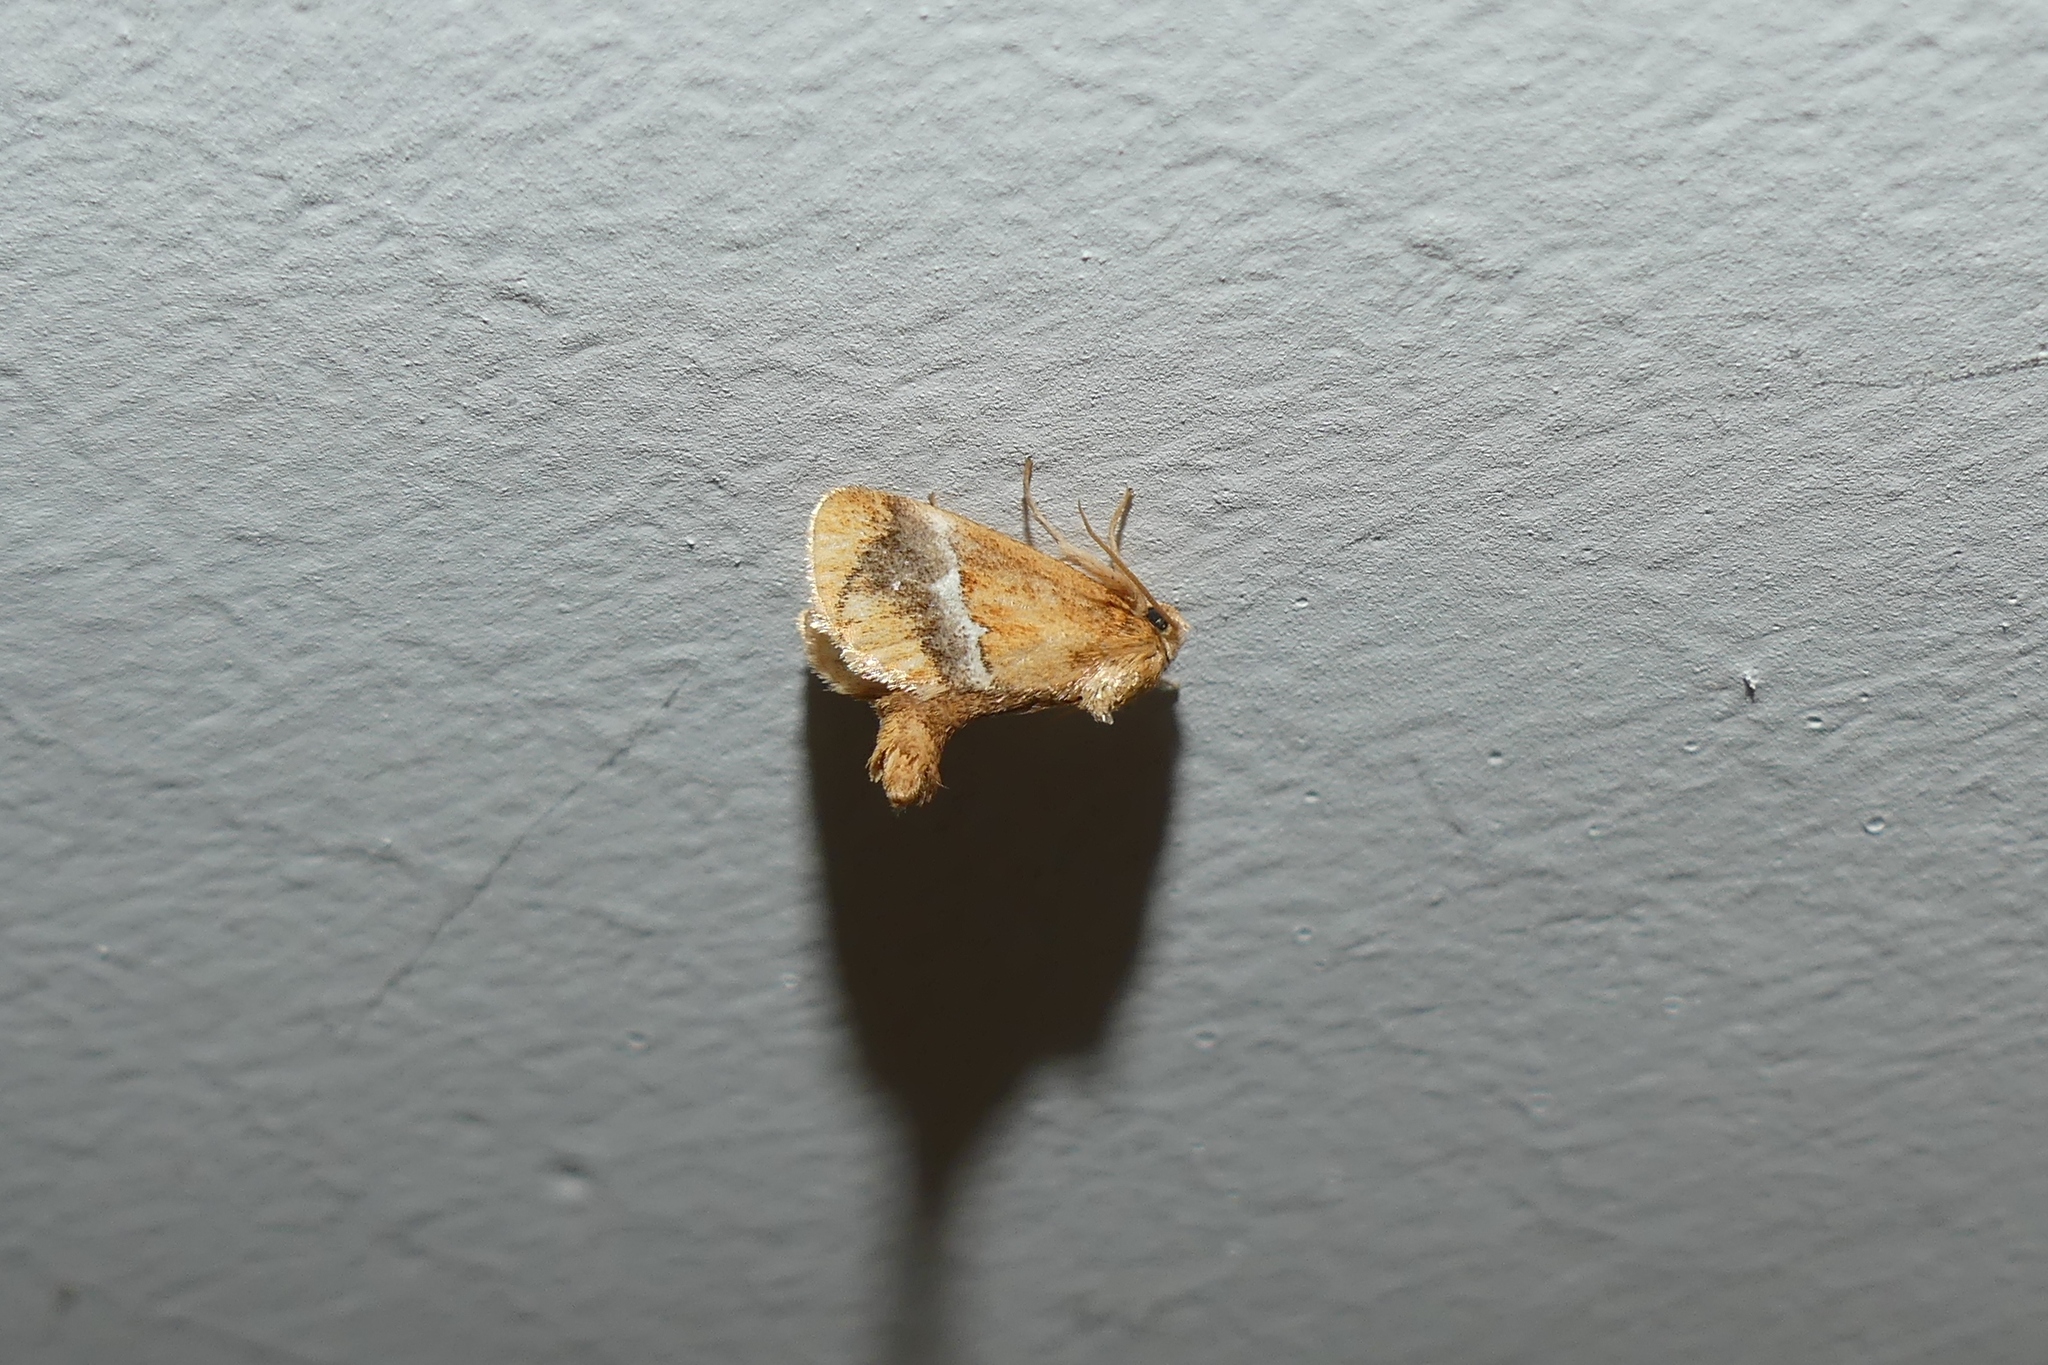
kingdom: Animalia
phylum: Arthropoda
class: Insecta
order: Lepidoptera
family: Limacodidae
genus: Lithacodes
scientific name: Lithacodes fasciola
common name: Yellow-shouldered slug moth
